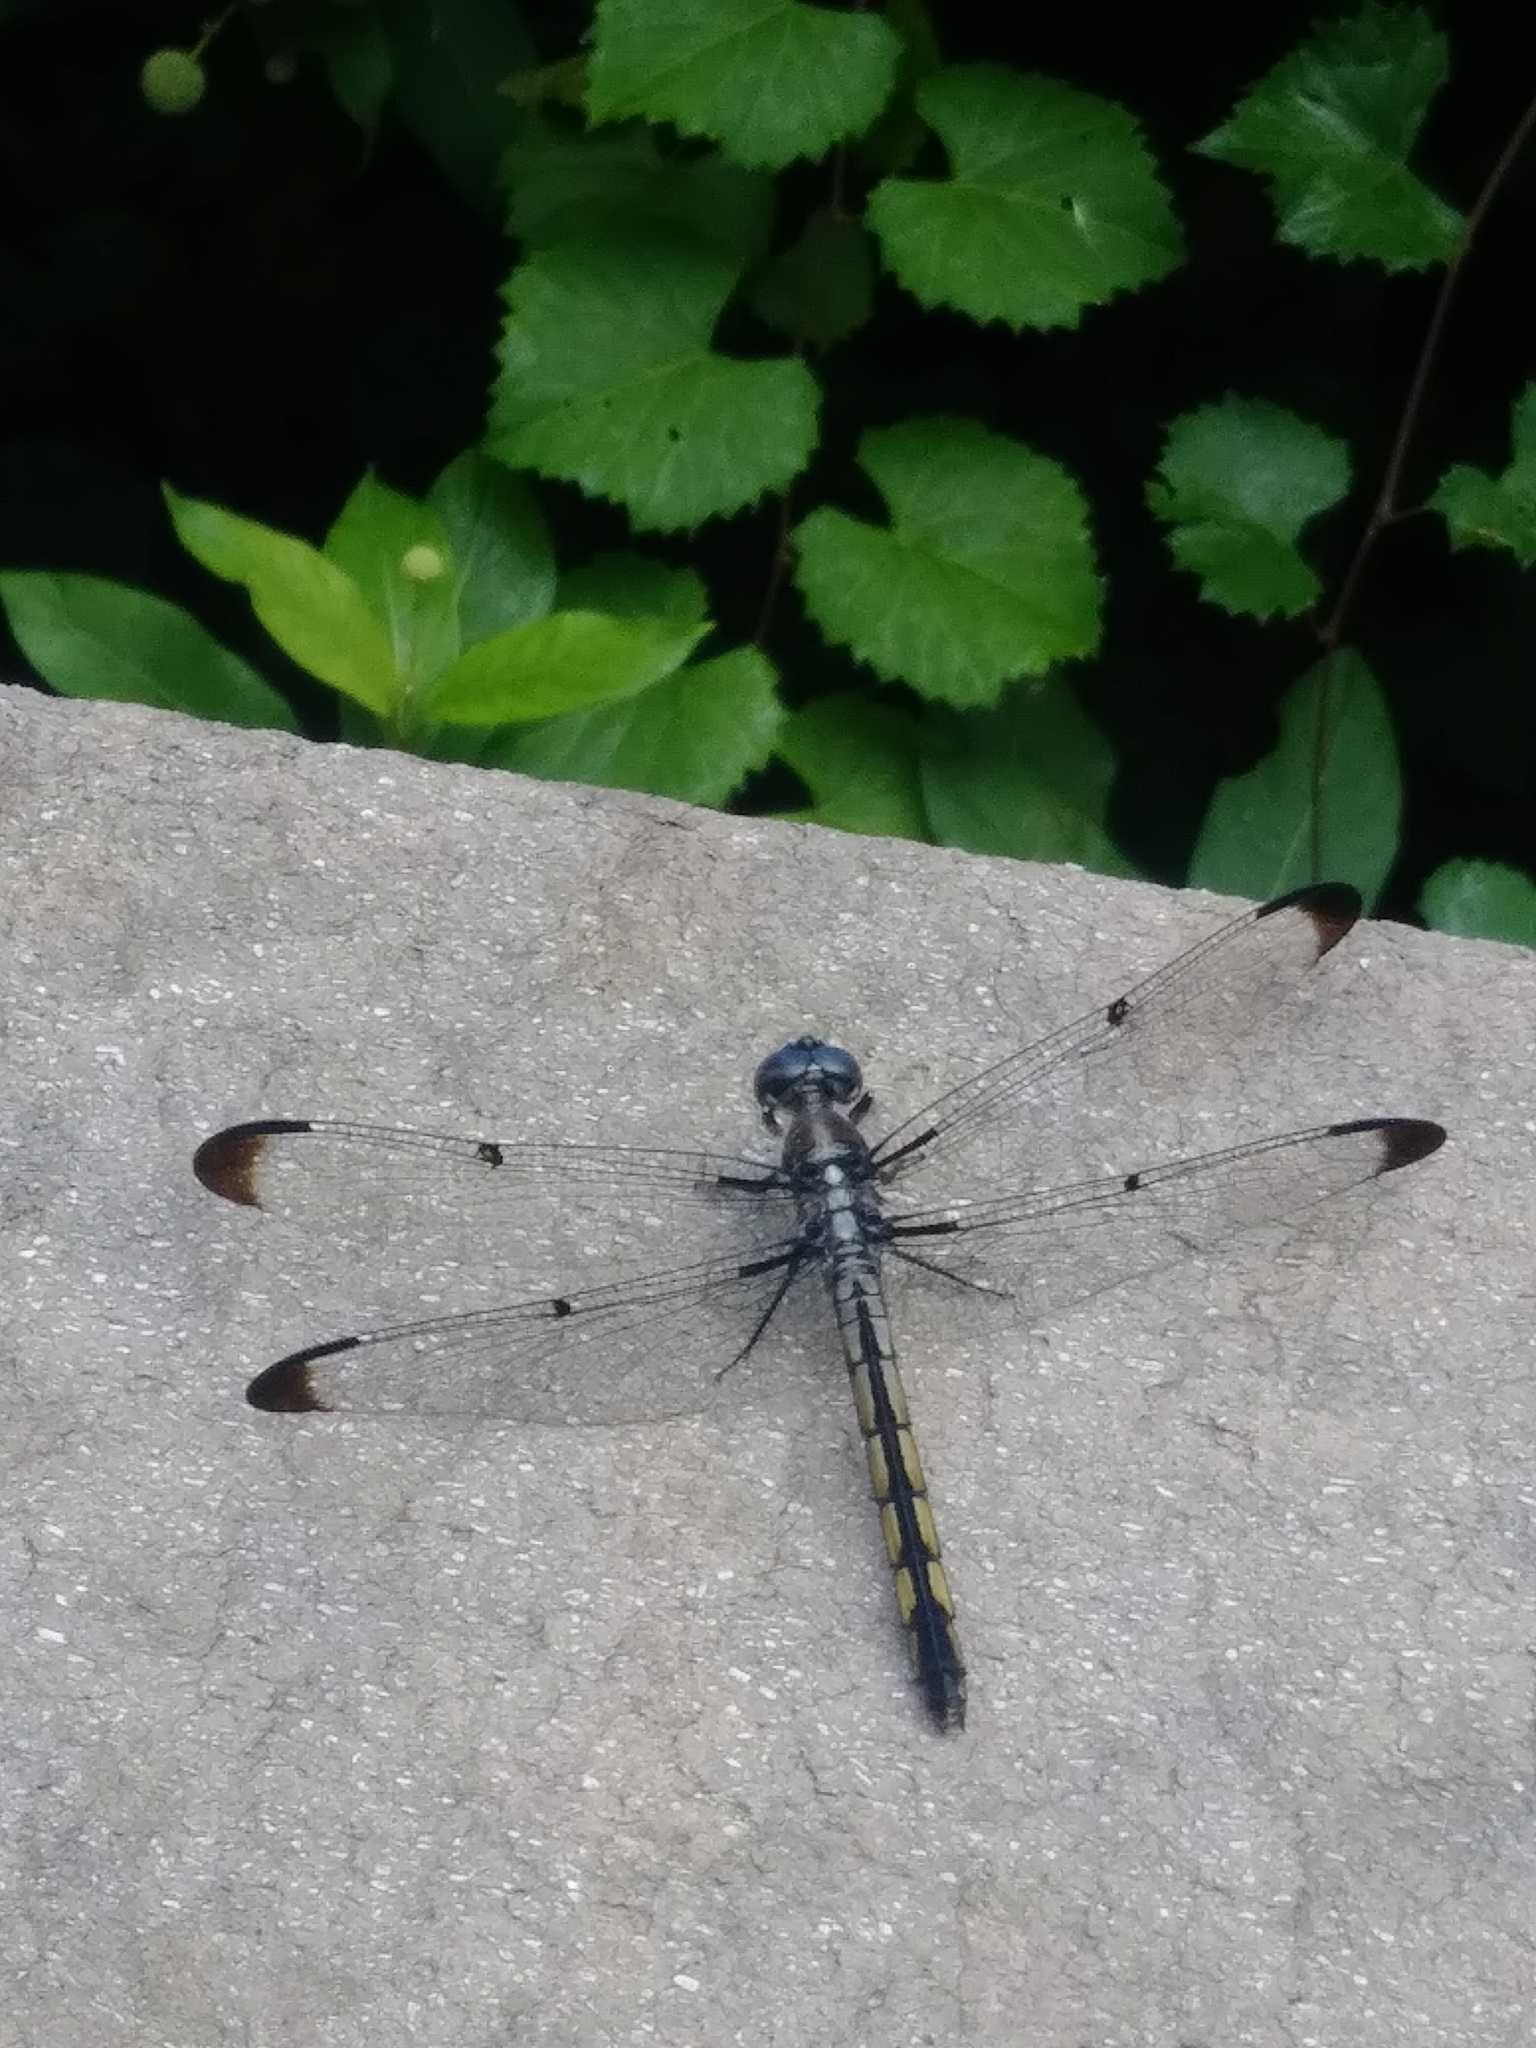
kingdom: Animalia
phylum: Arthropoda
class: Insecta
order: Odonata
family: Libellulidae
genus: Libellula
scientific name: Libellula vibrans
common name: Great blue skimmer
